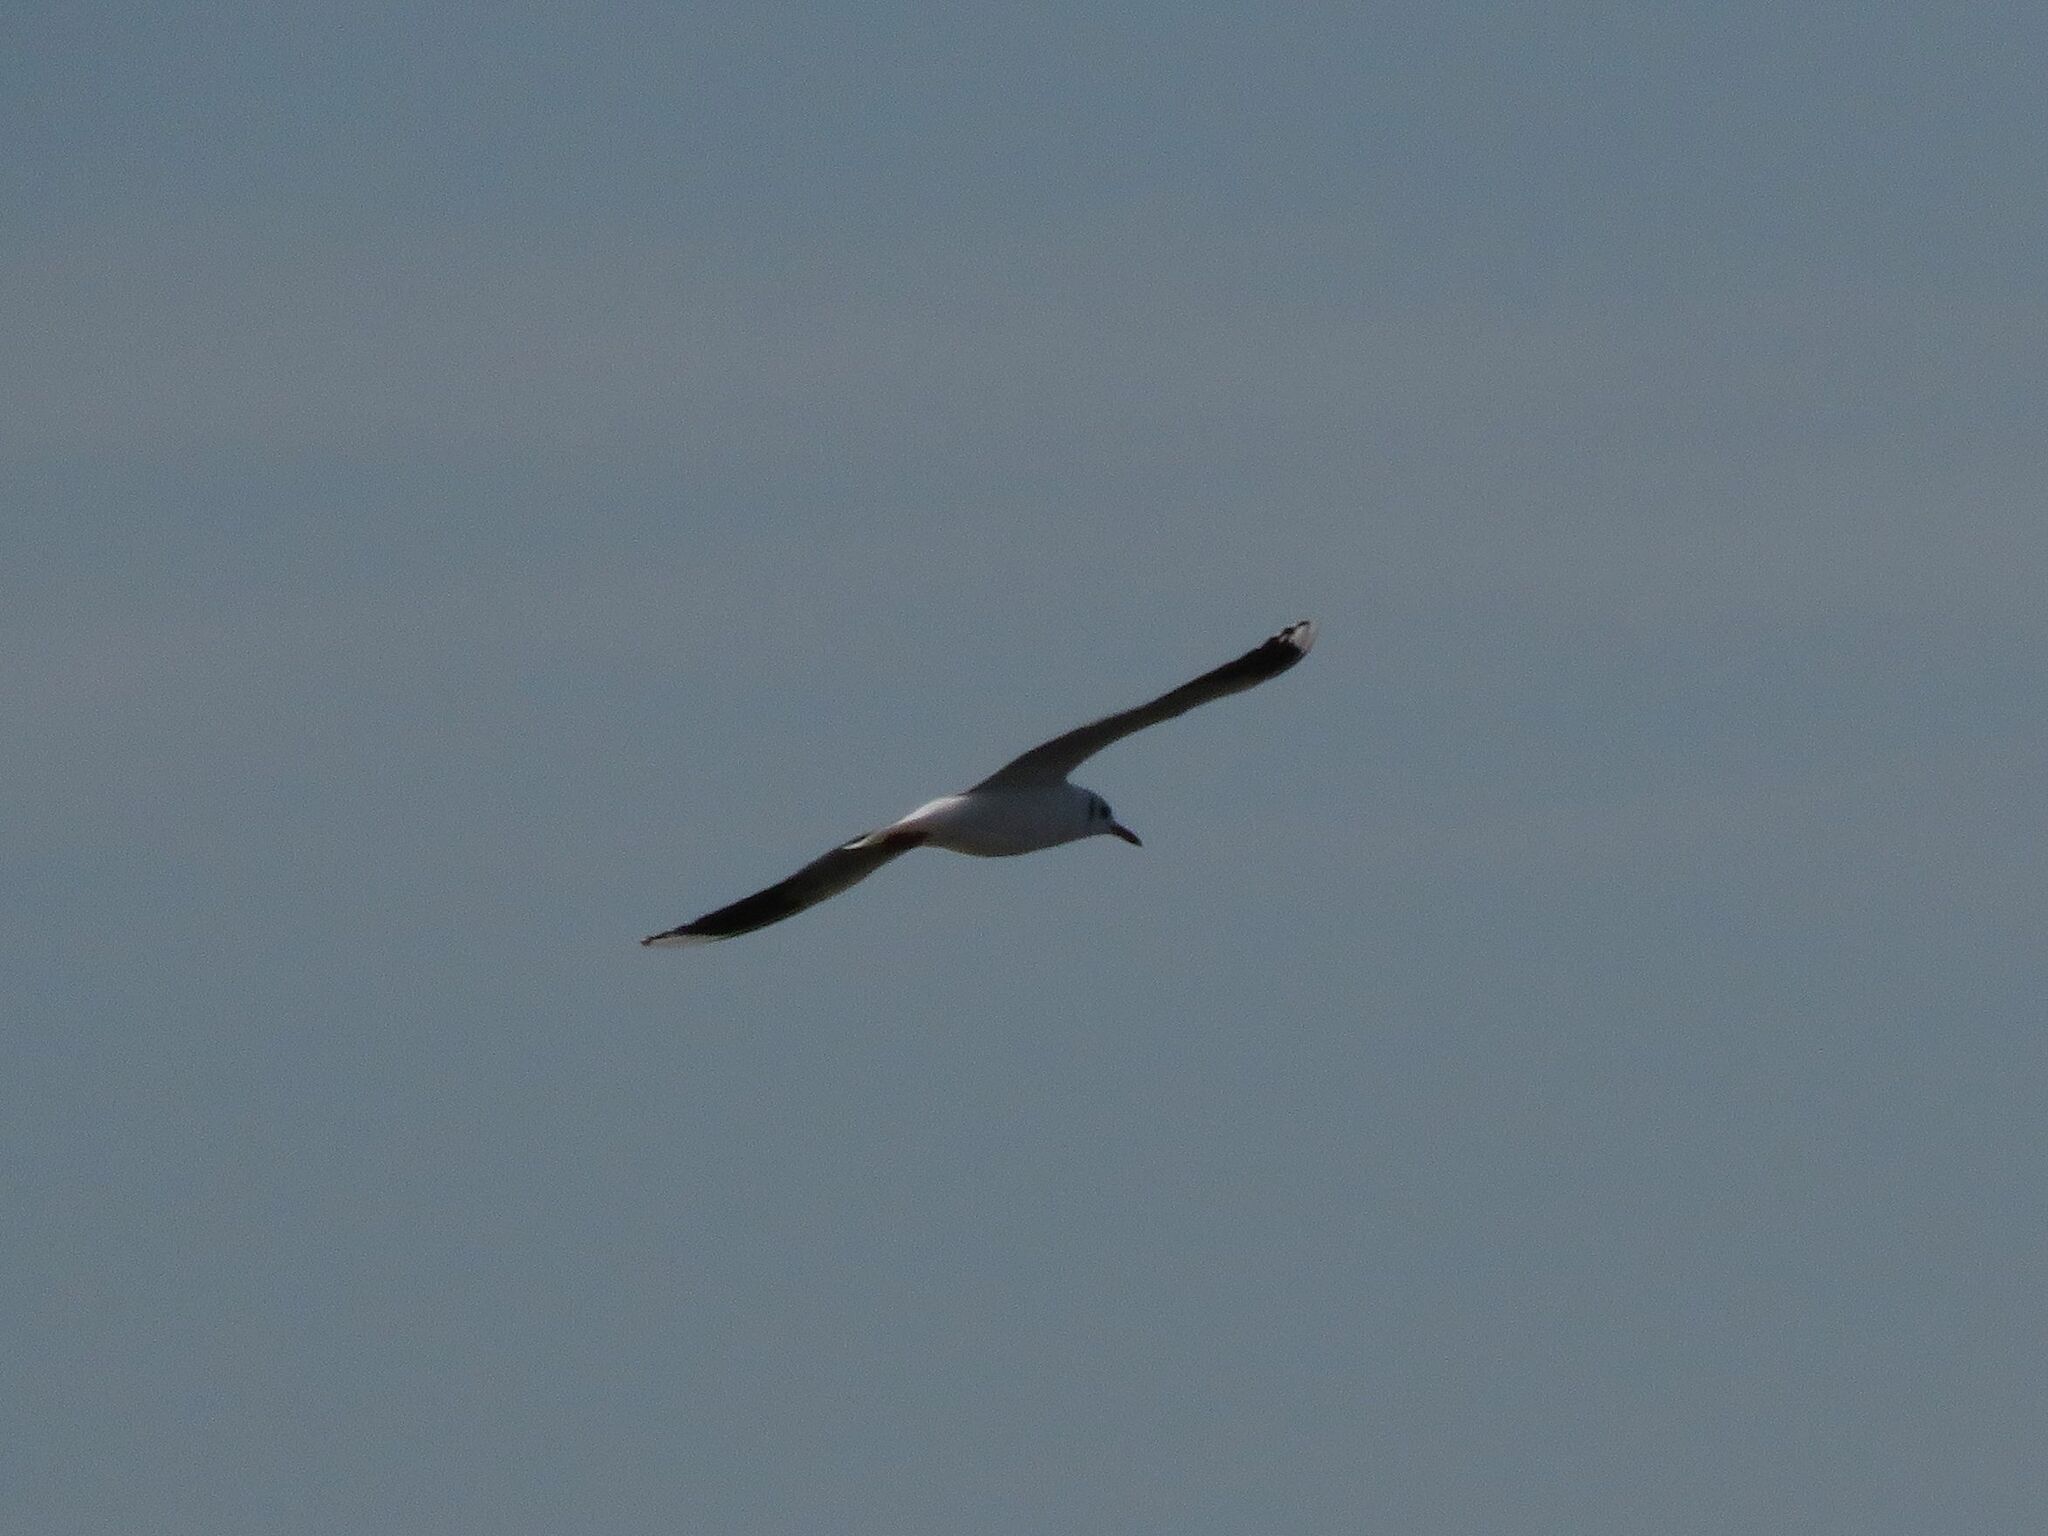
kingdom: Animalia
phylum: Chordata
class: Aves
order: Charadriiformes
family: Laridae
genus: Chroicocephalus
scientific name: Chroicocephalus maculipennis
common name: Brown-hooded gull
